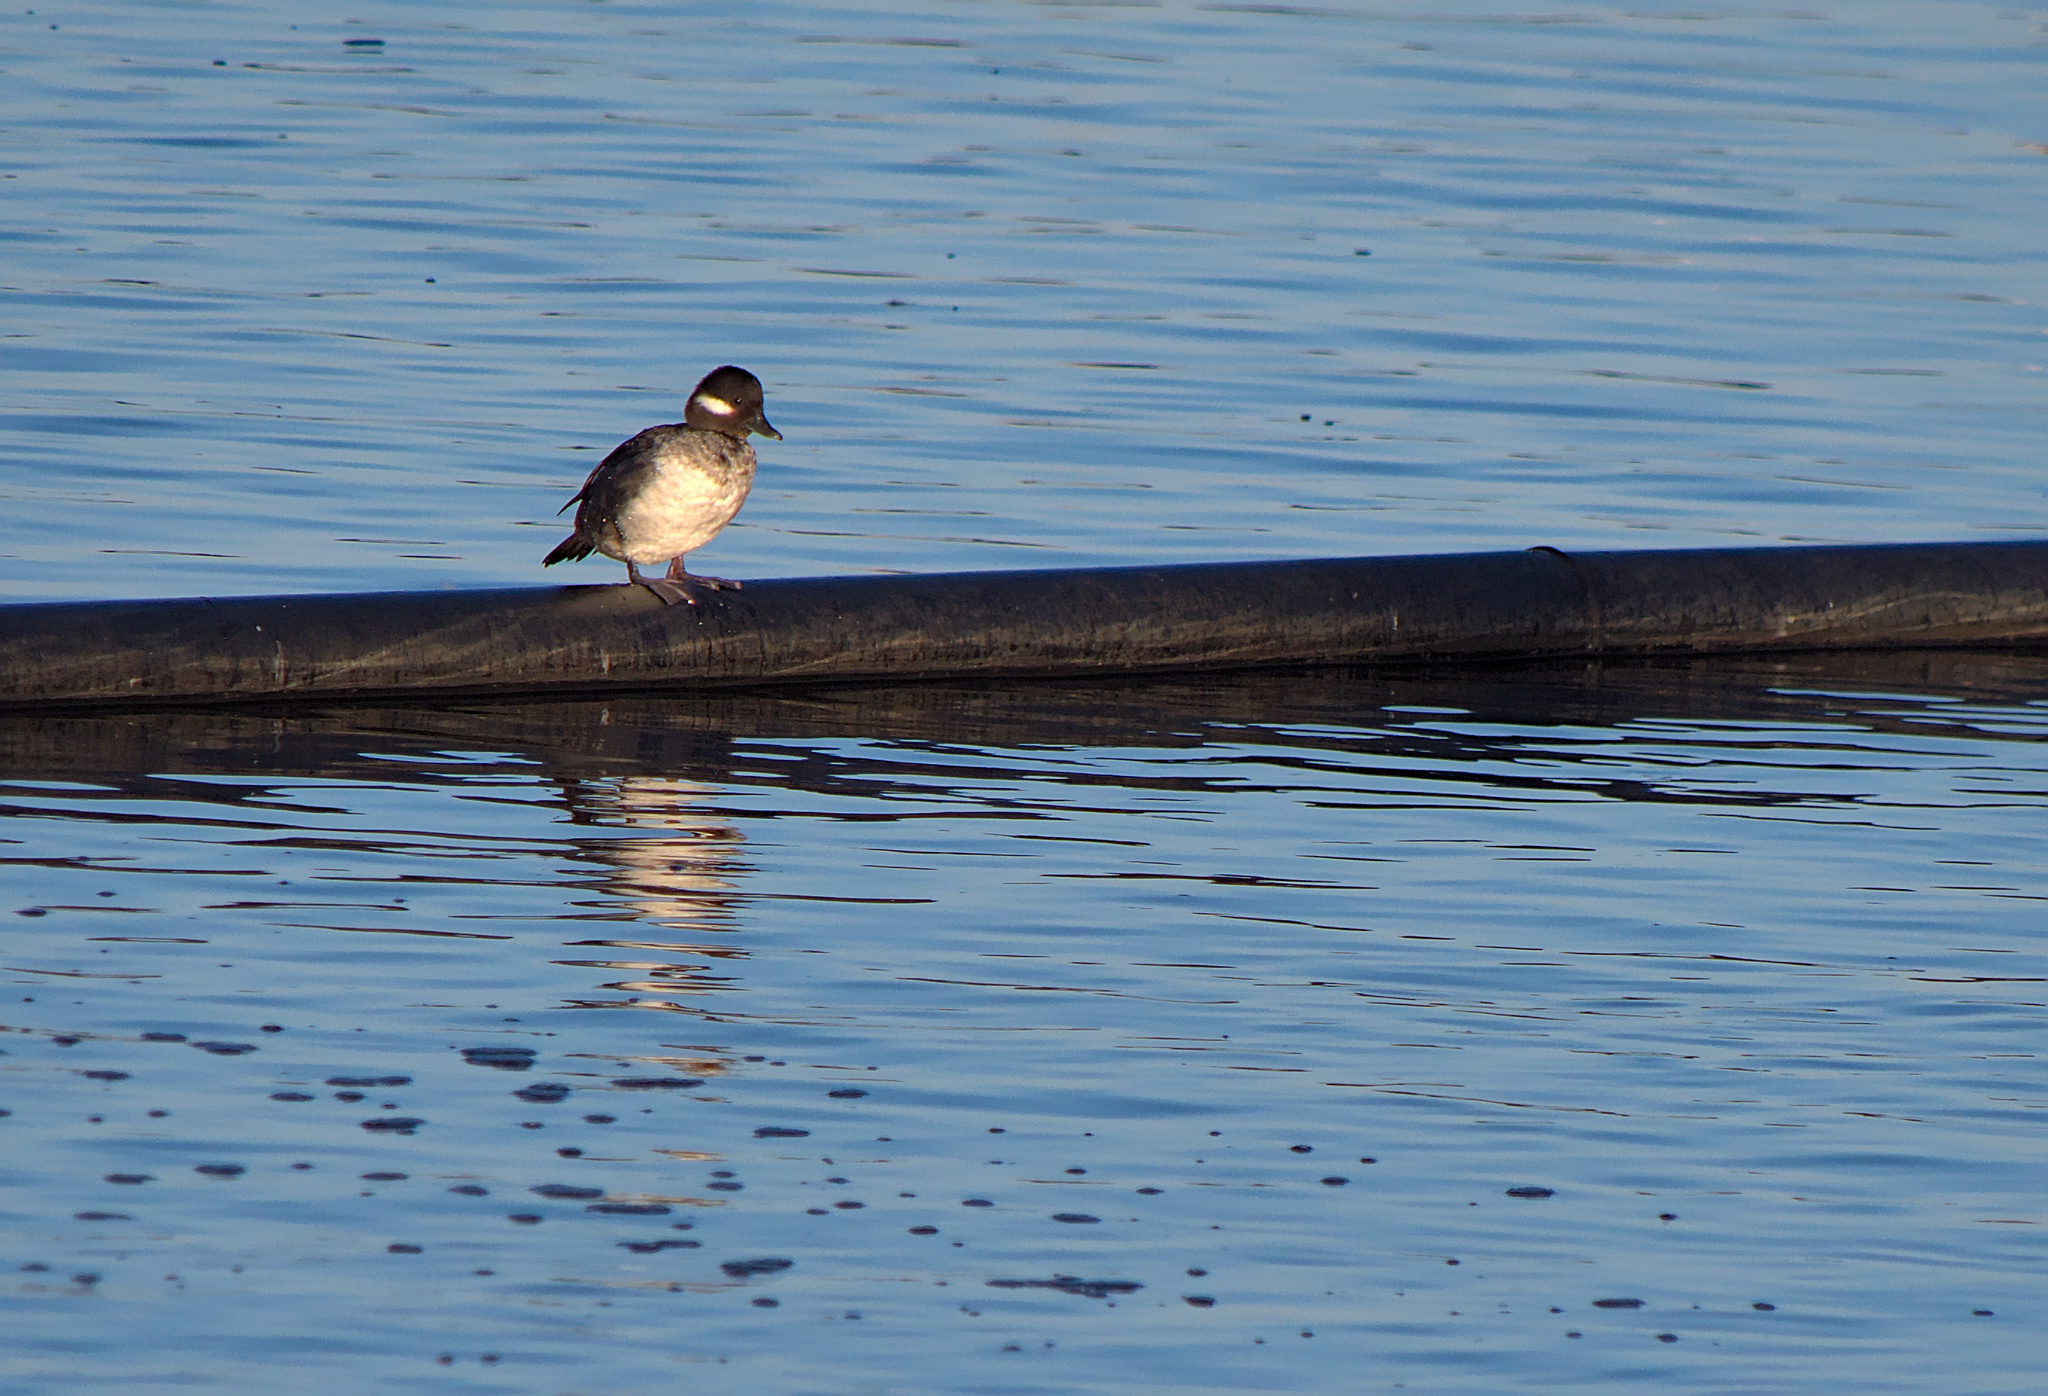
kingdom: Animalia
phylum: Chordata
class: Aves
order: Anseriformes
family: Anatidae
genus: Bucephala
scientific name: Bucephala albeola
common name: Bufflehead
